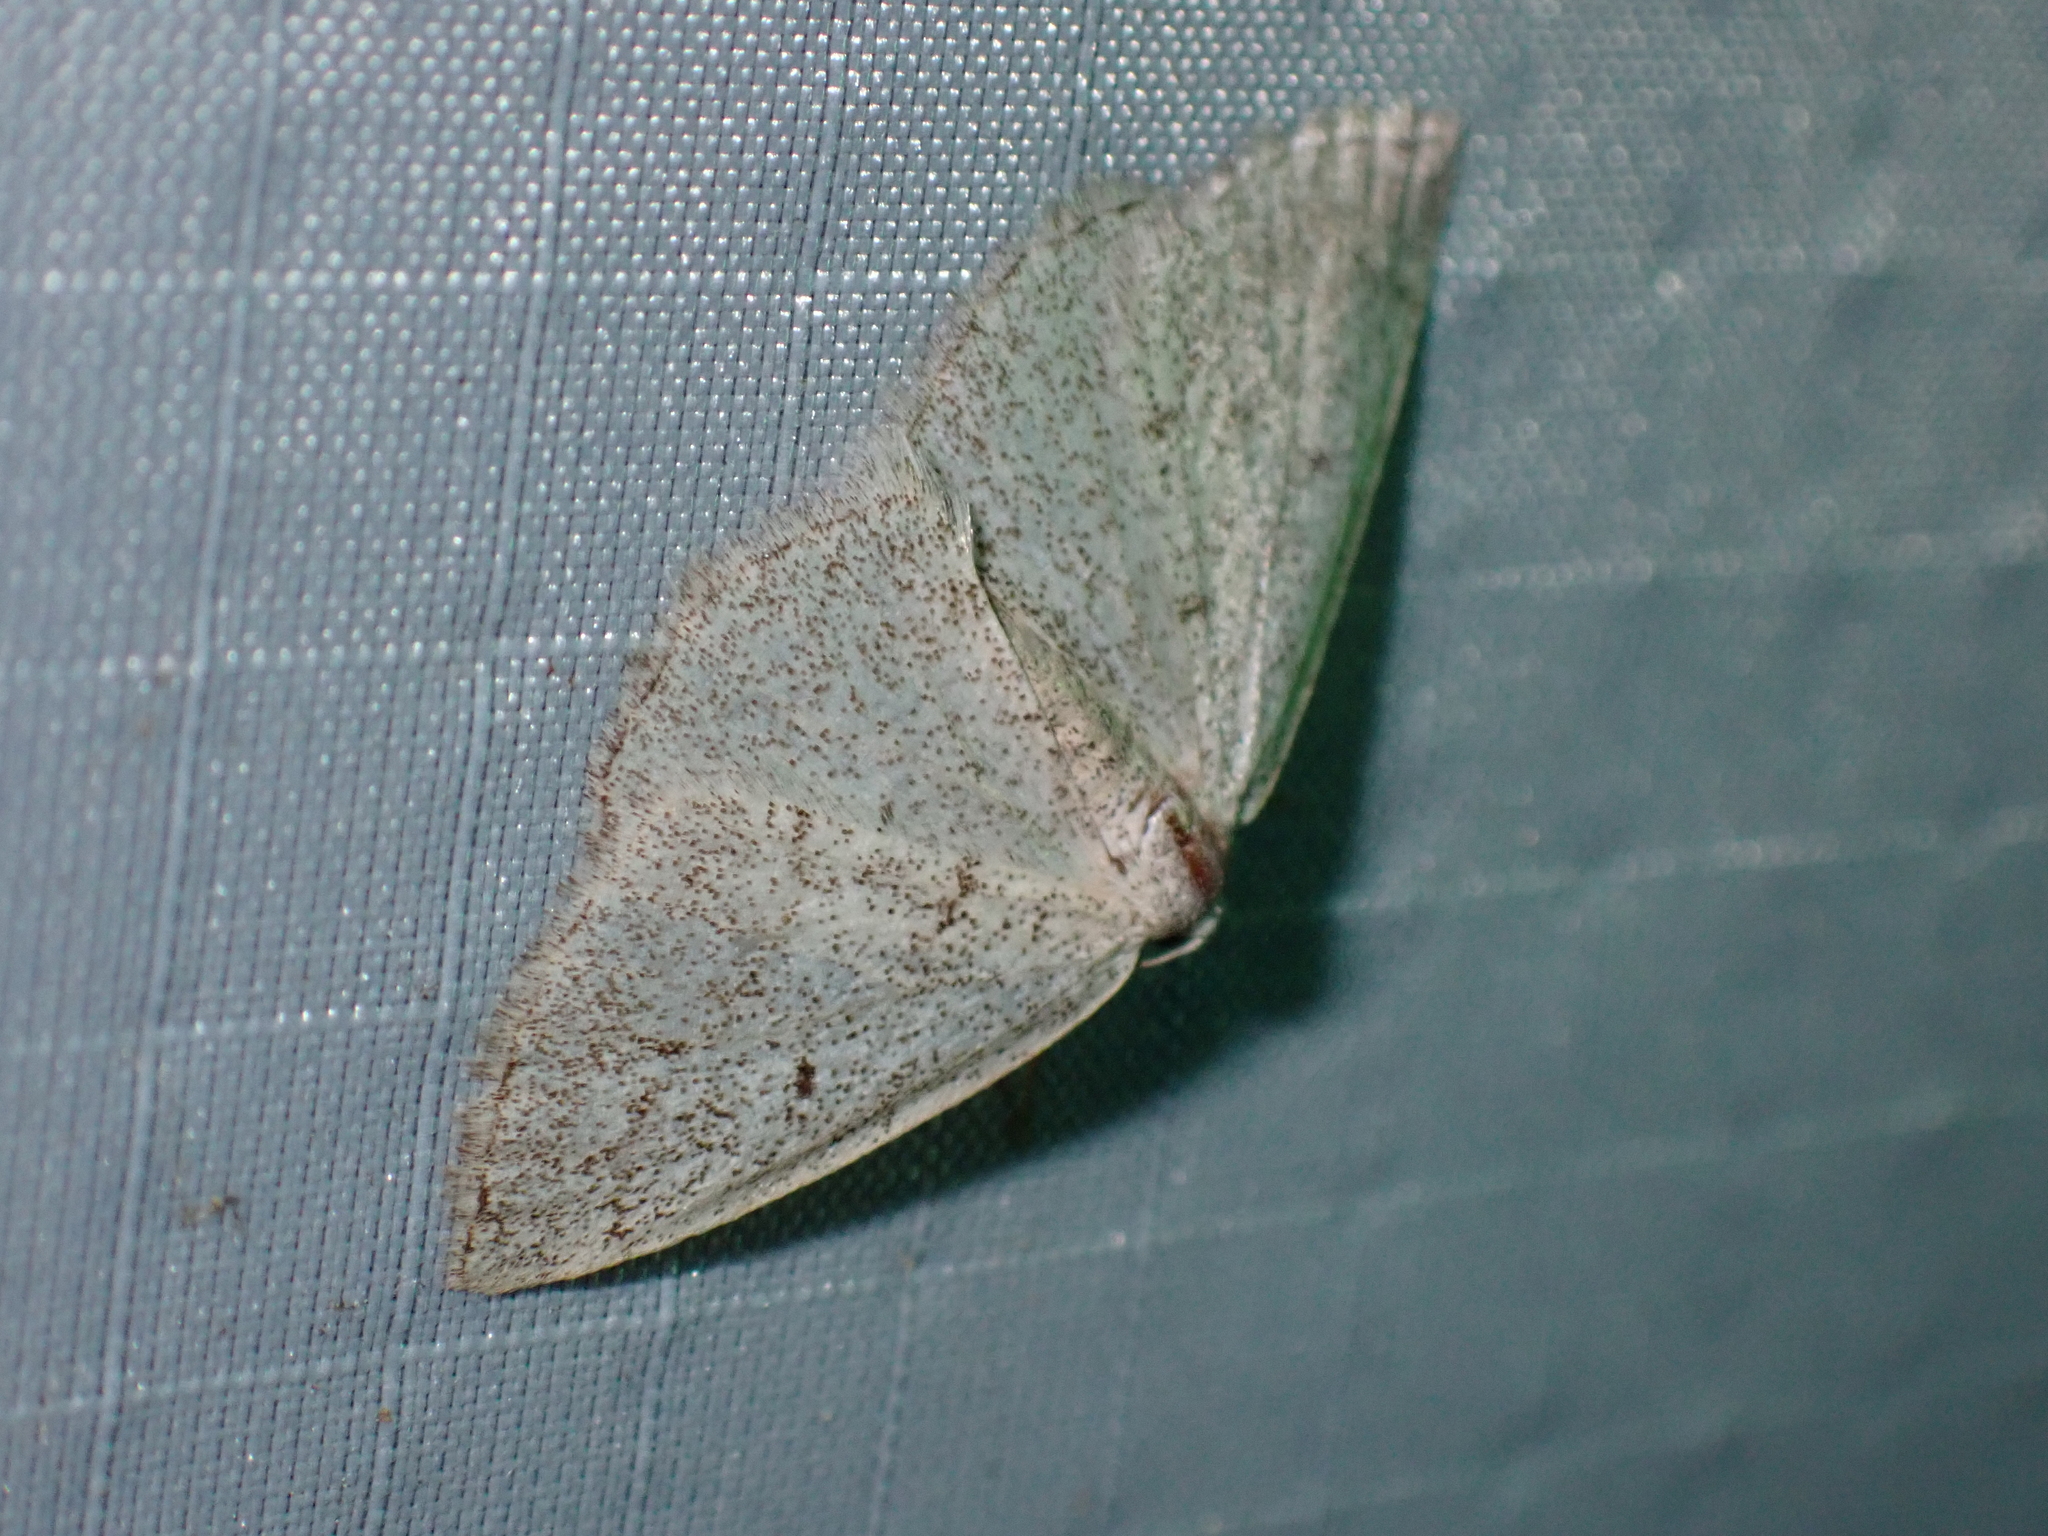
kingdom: Animalia
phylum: Arthropoda
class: Insecta
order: Lepidoptera
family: Geometridae
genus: Lomographa
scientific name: Lomographa glomeraria
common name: Gray spring moth
